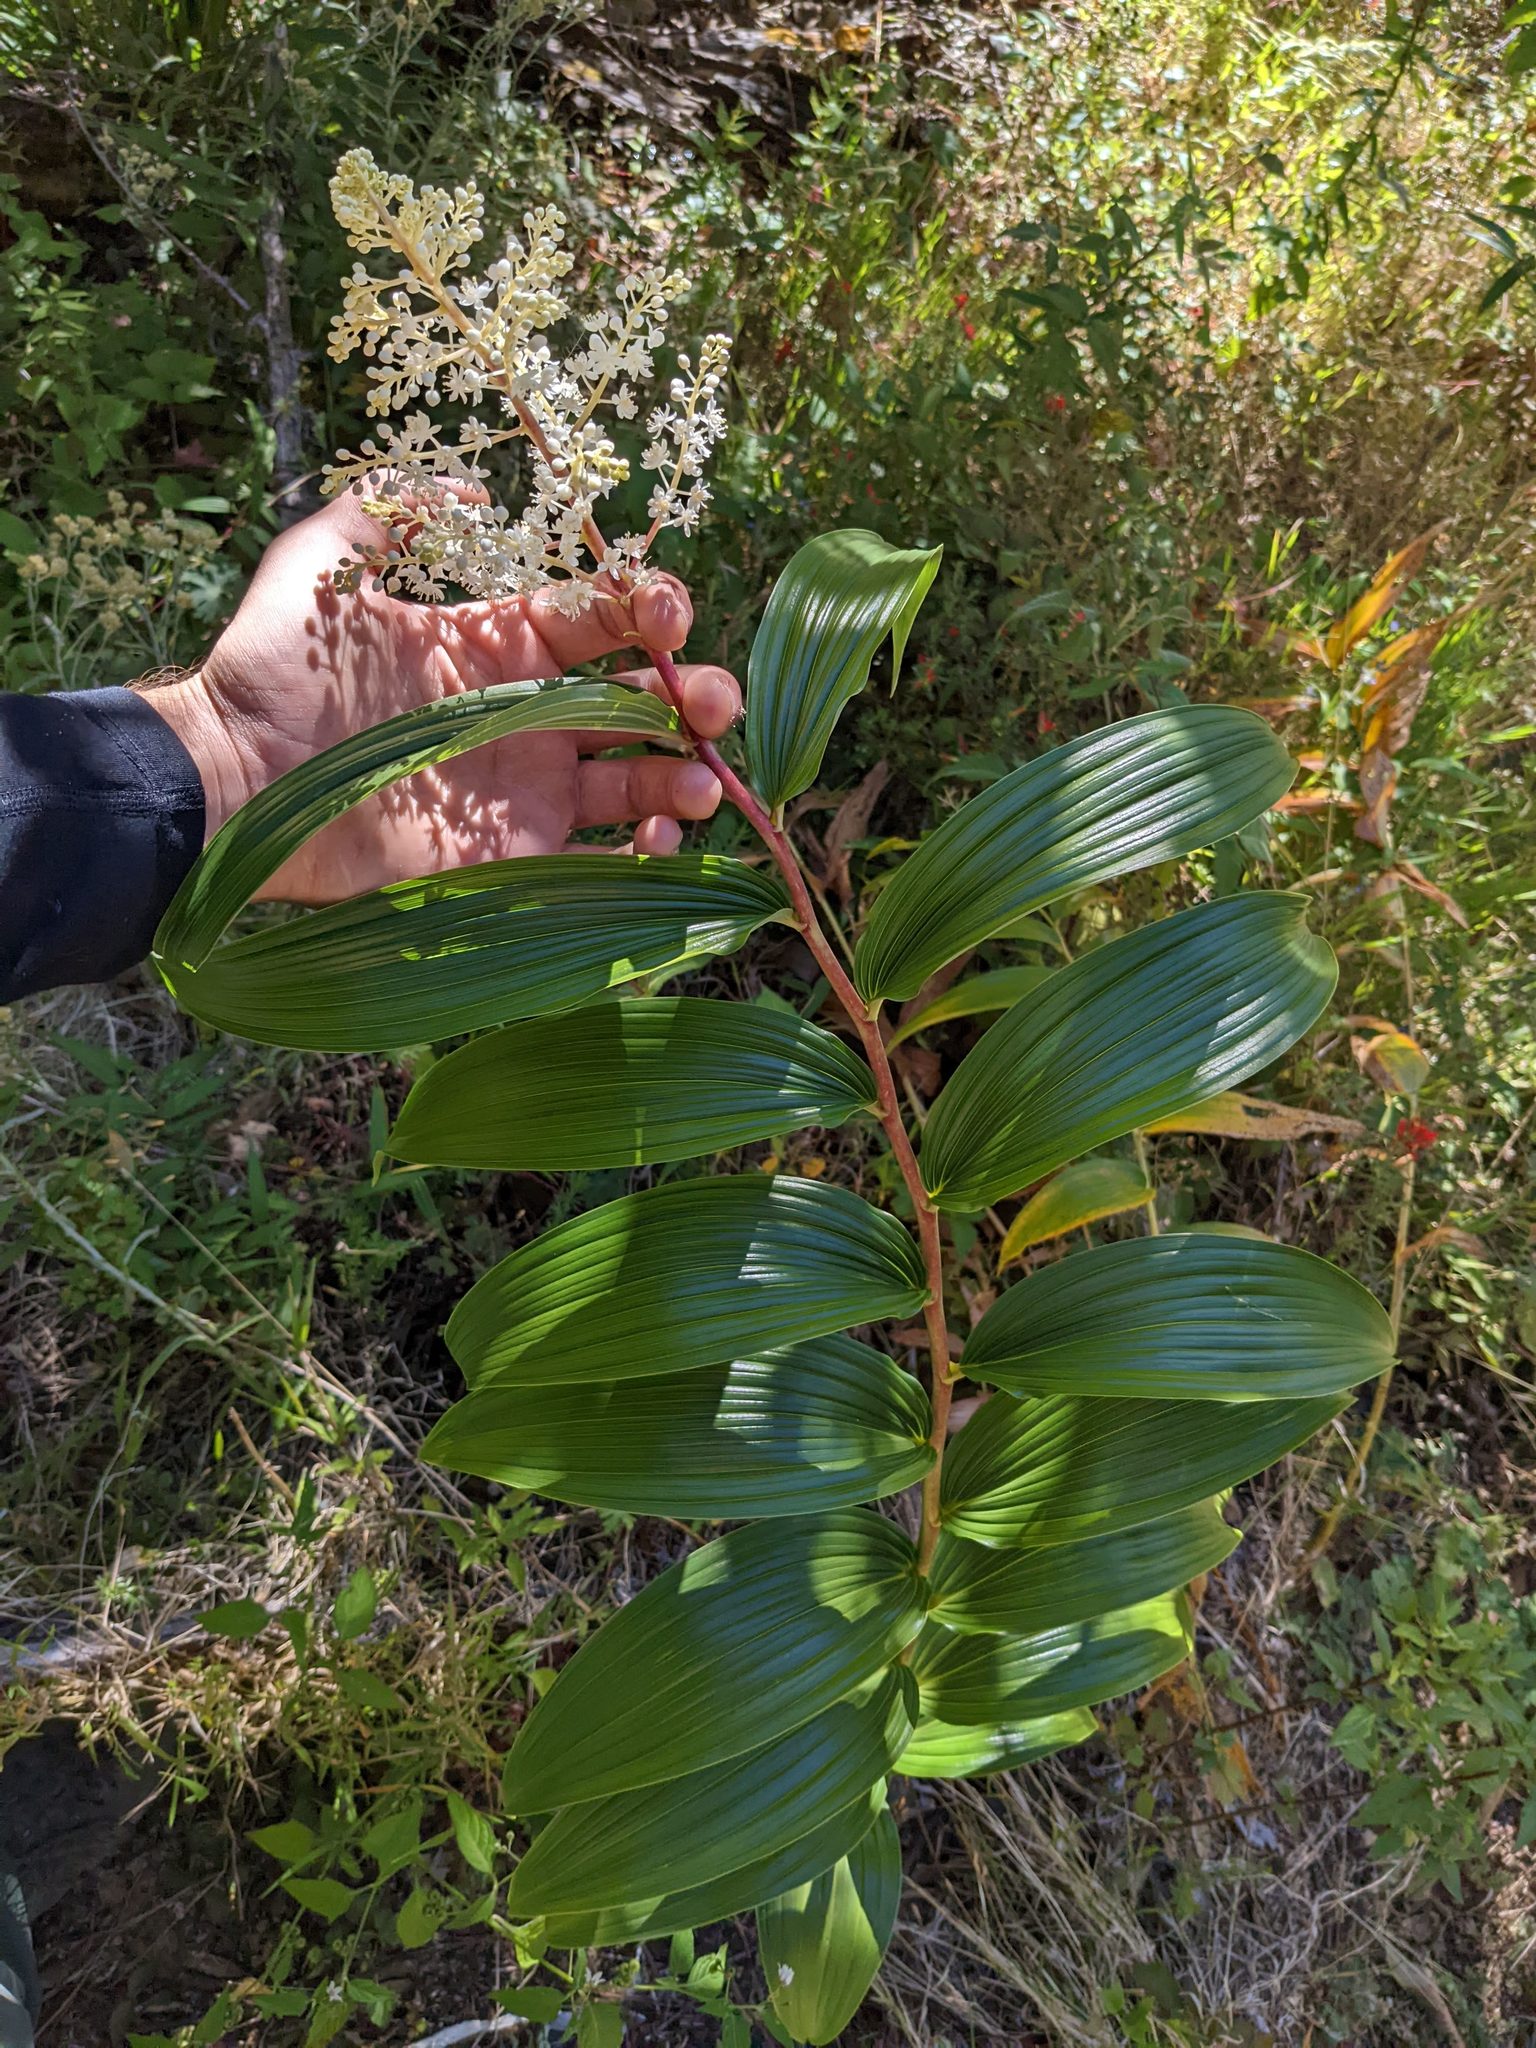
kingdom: Plantae
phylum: Tracheophyta
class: Liliopsida
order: Asparagales
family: Asparagaceae
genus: Maianthemum
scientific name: Maianthemum gigas
